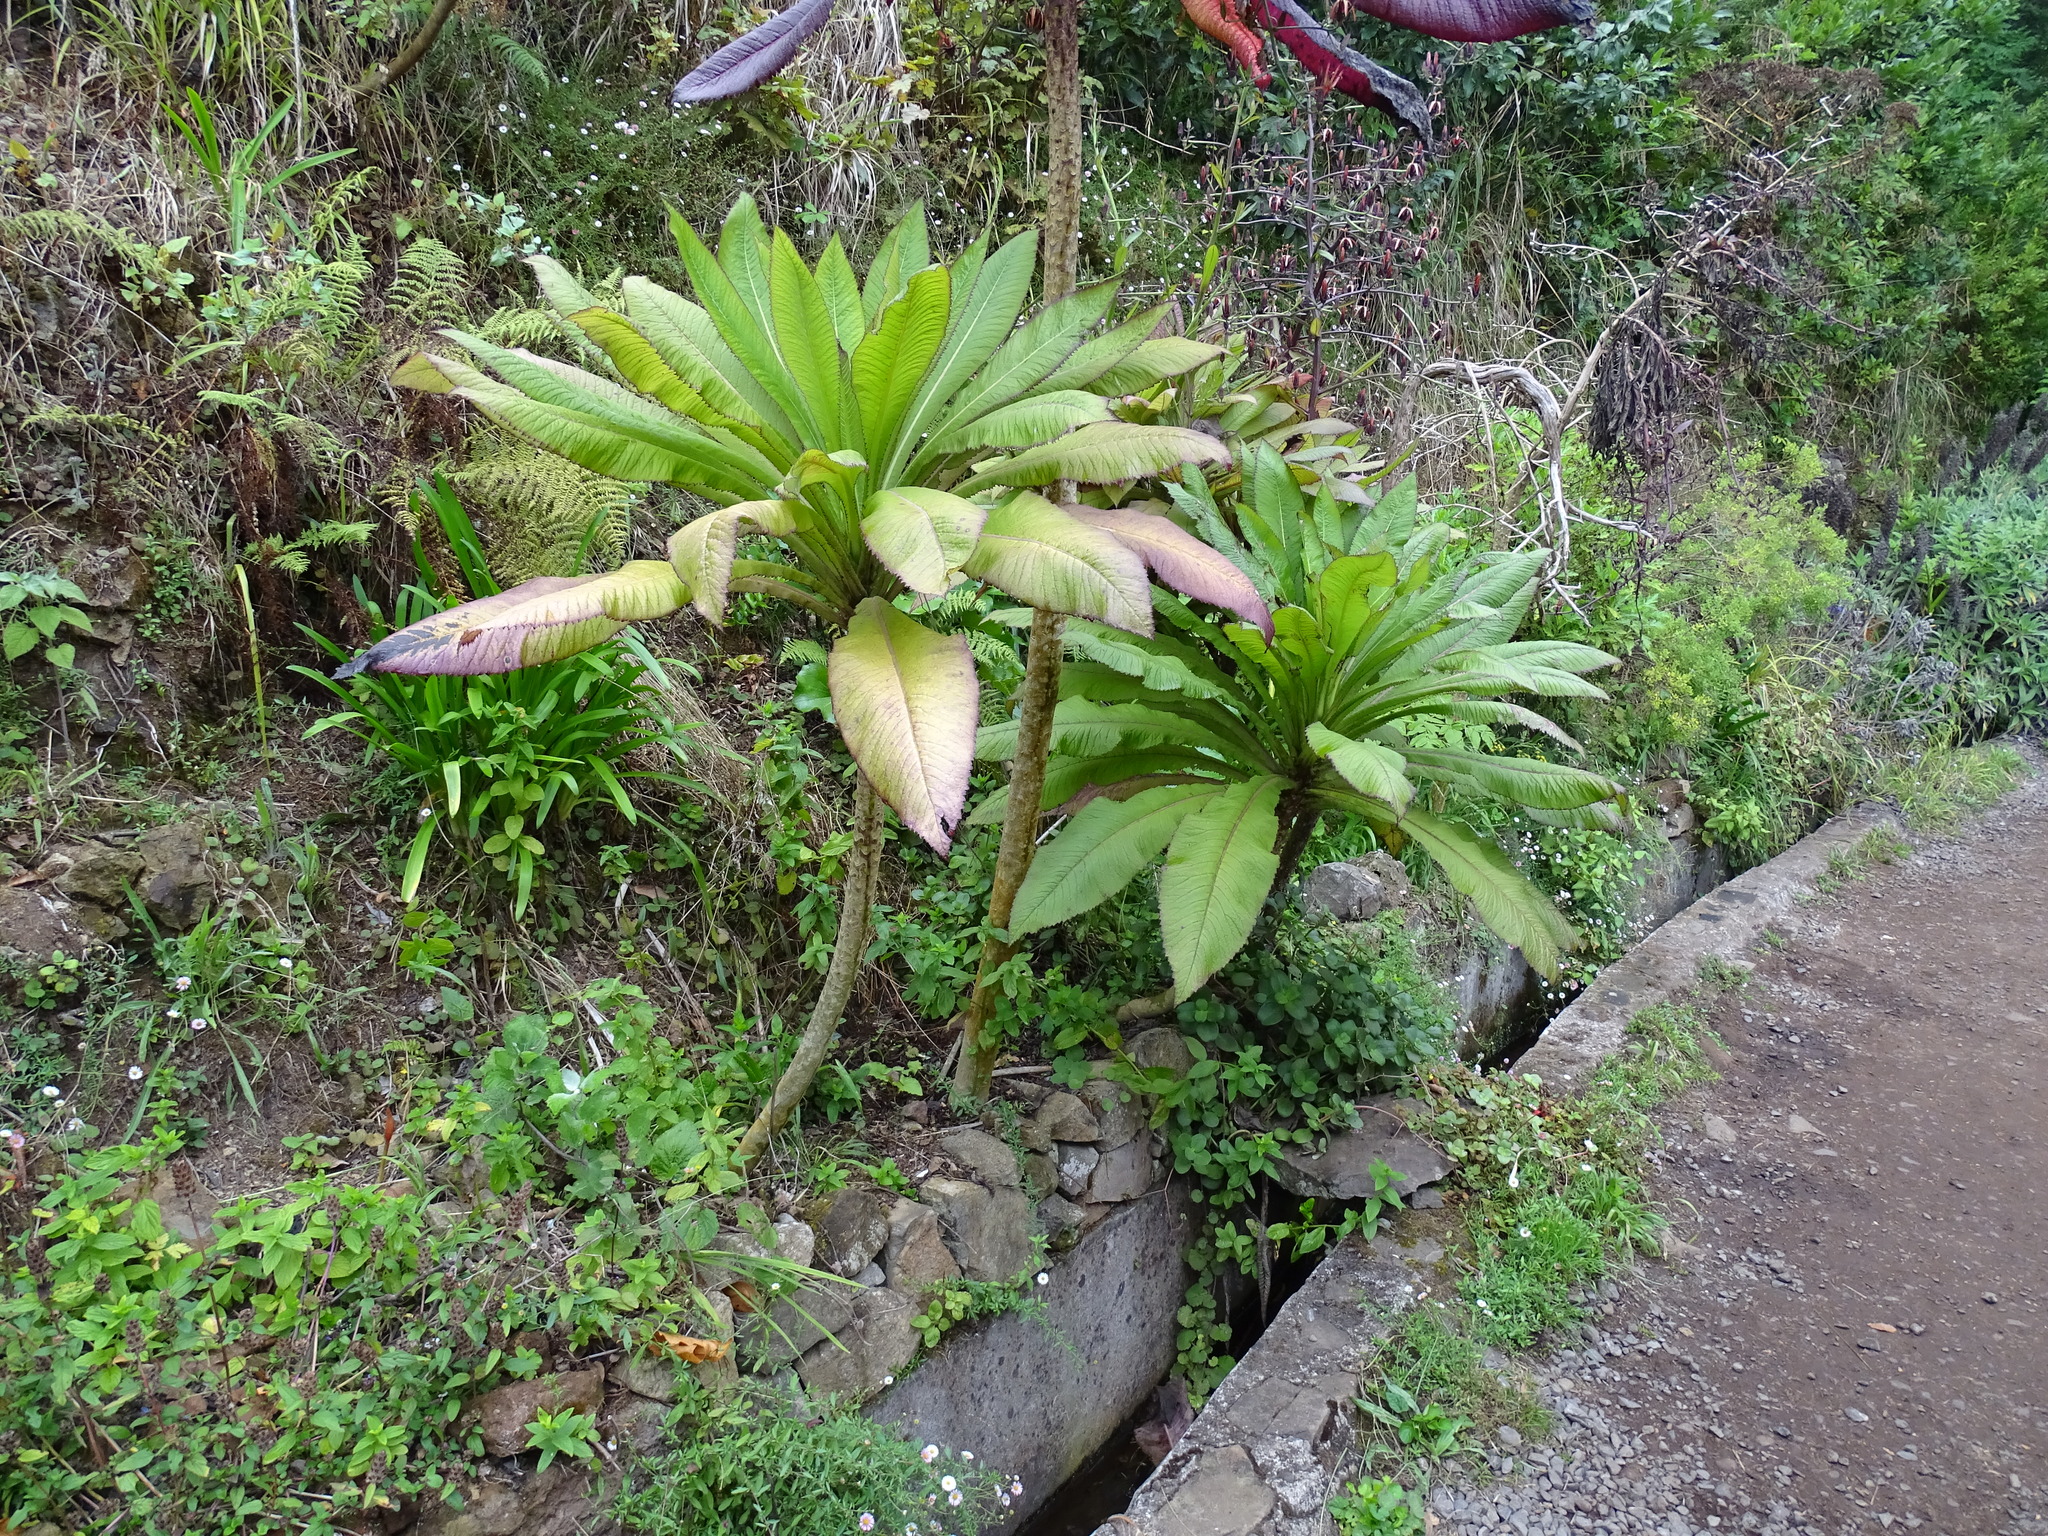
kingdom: Plantae
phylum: Tracheophyta
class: Magnoliopsida
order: Asterales
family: Campanulaceae
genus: Musschia
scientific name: Musschia wollastonii
